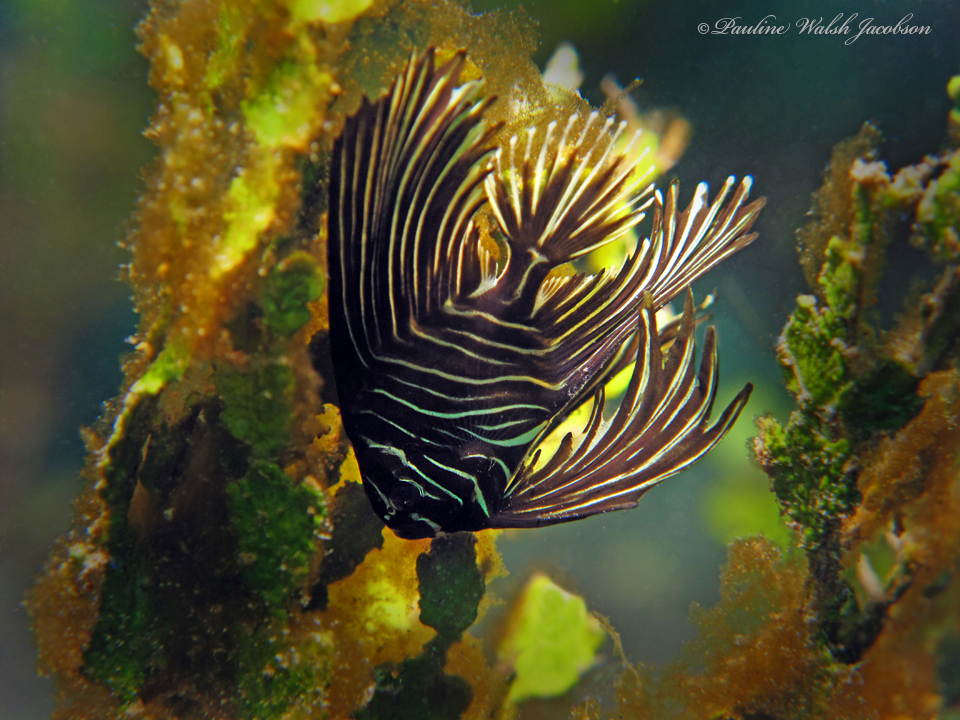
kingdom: Animalia
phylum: Chordata
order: Perciformes
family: Ephippidae
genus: Platax
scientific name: Platax batavianus
